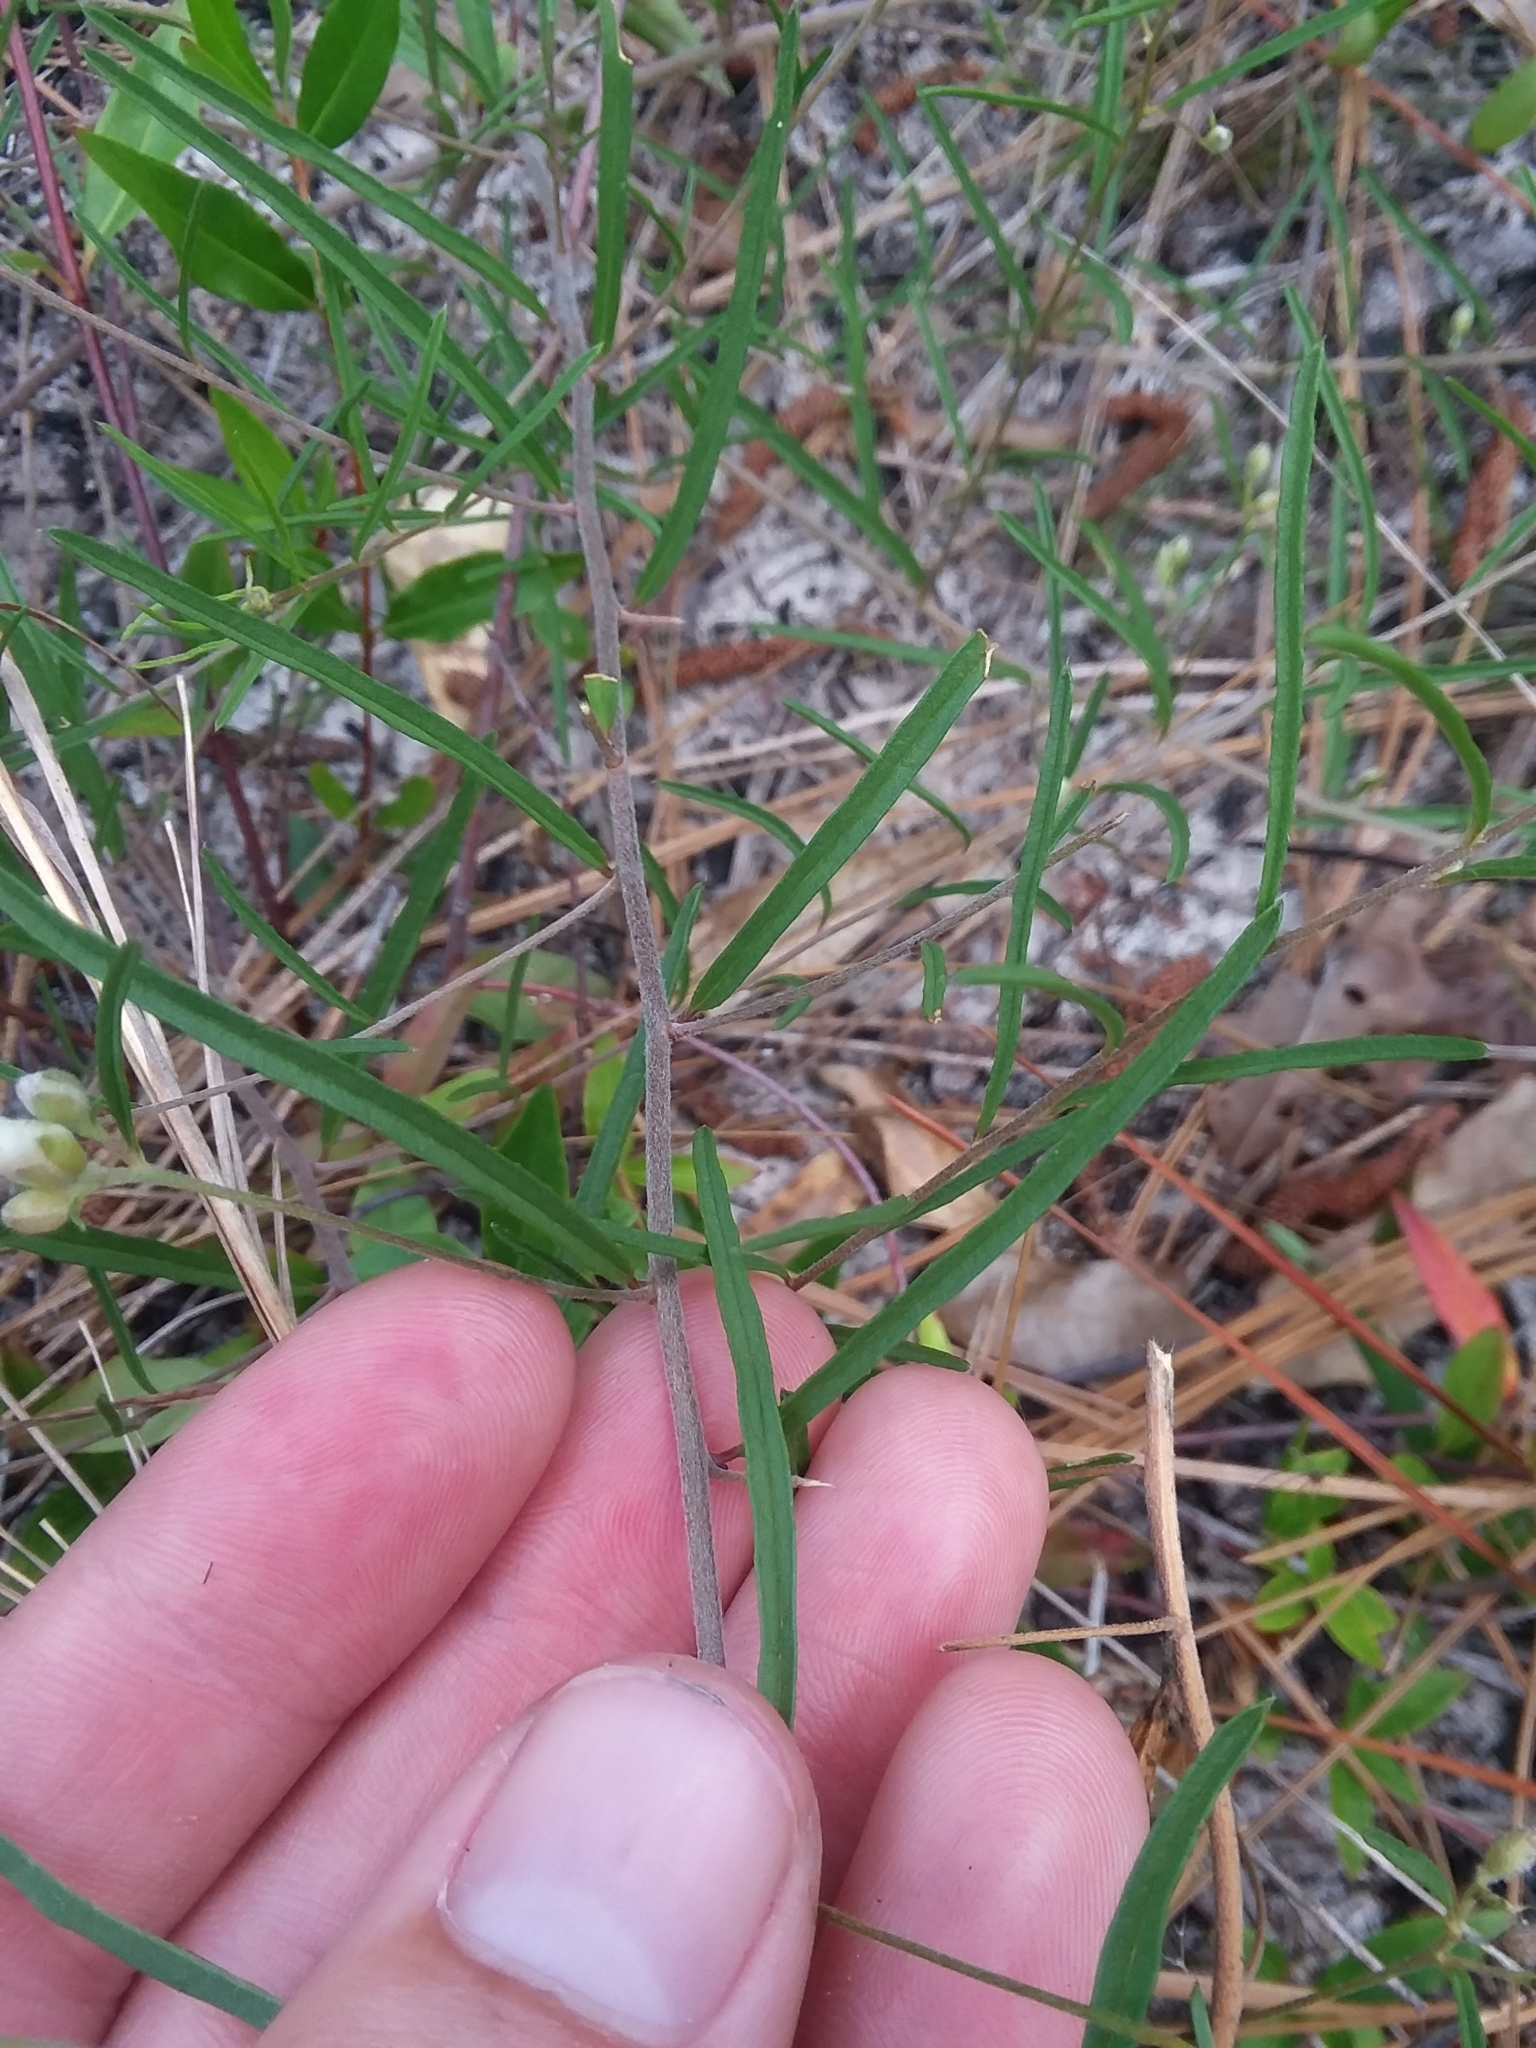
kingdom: Plantae
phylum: Tracheophyta
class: Magnoliopsida
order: Solanales
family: Convolvulaceae
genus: Stylisma
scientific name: Stylisma pickeringii
